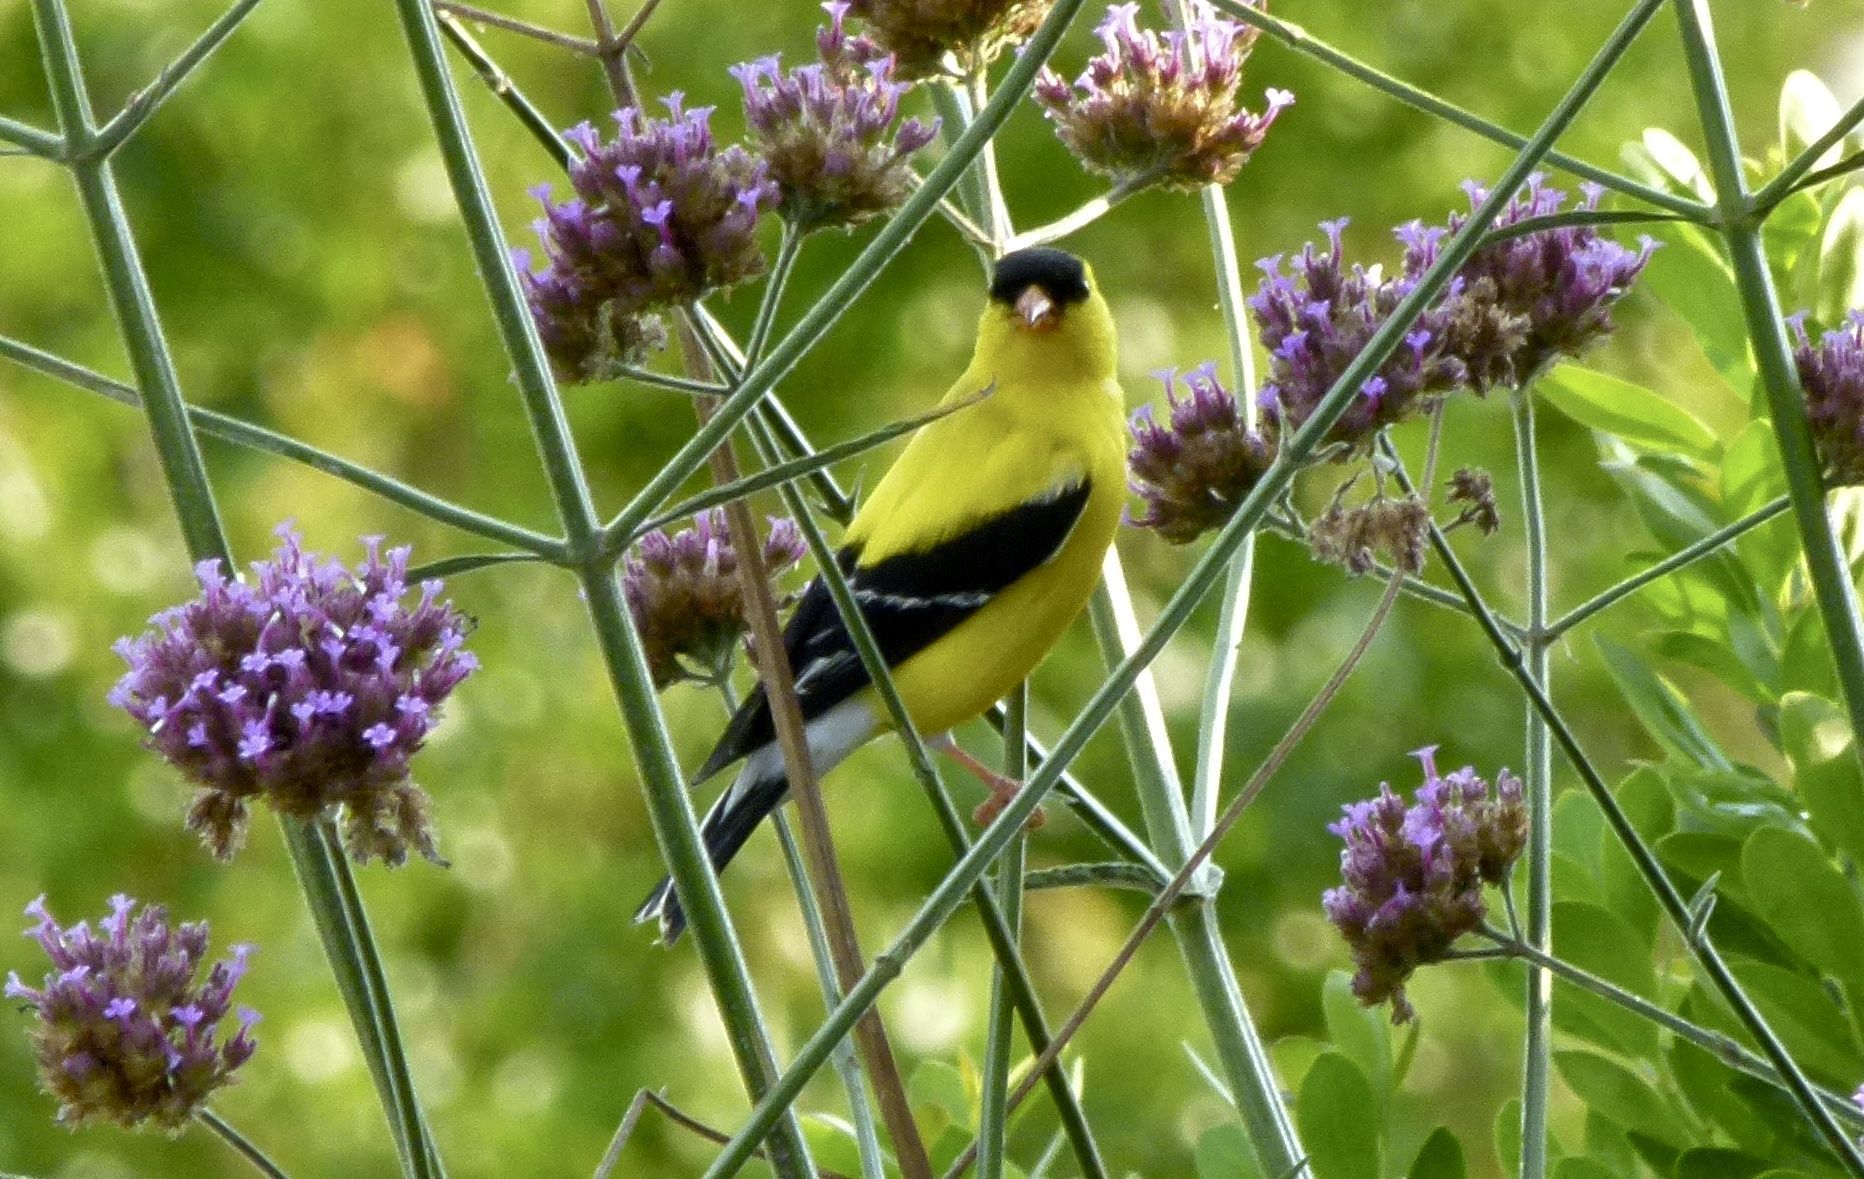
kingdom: Animalia
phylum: Chordata
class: Aves
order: Passeriformes
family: Fringillidae
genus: Spinus
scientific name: Spinus tristis
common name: American goldfinch
